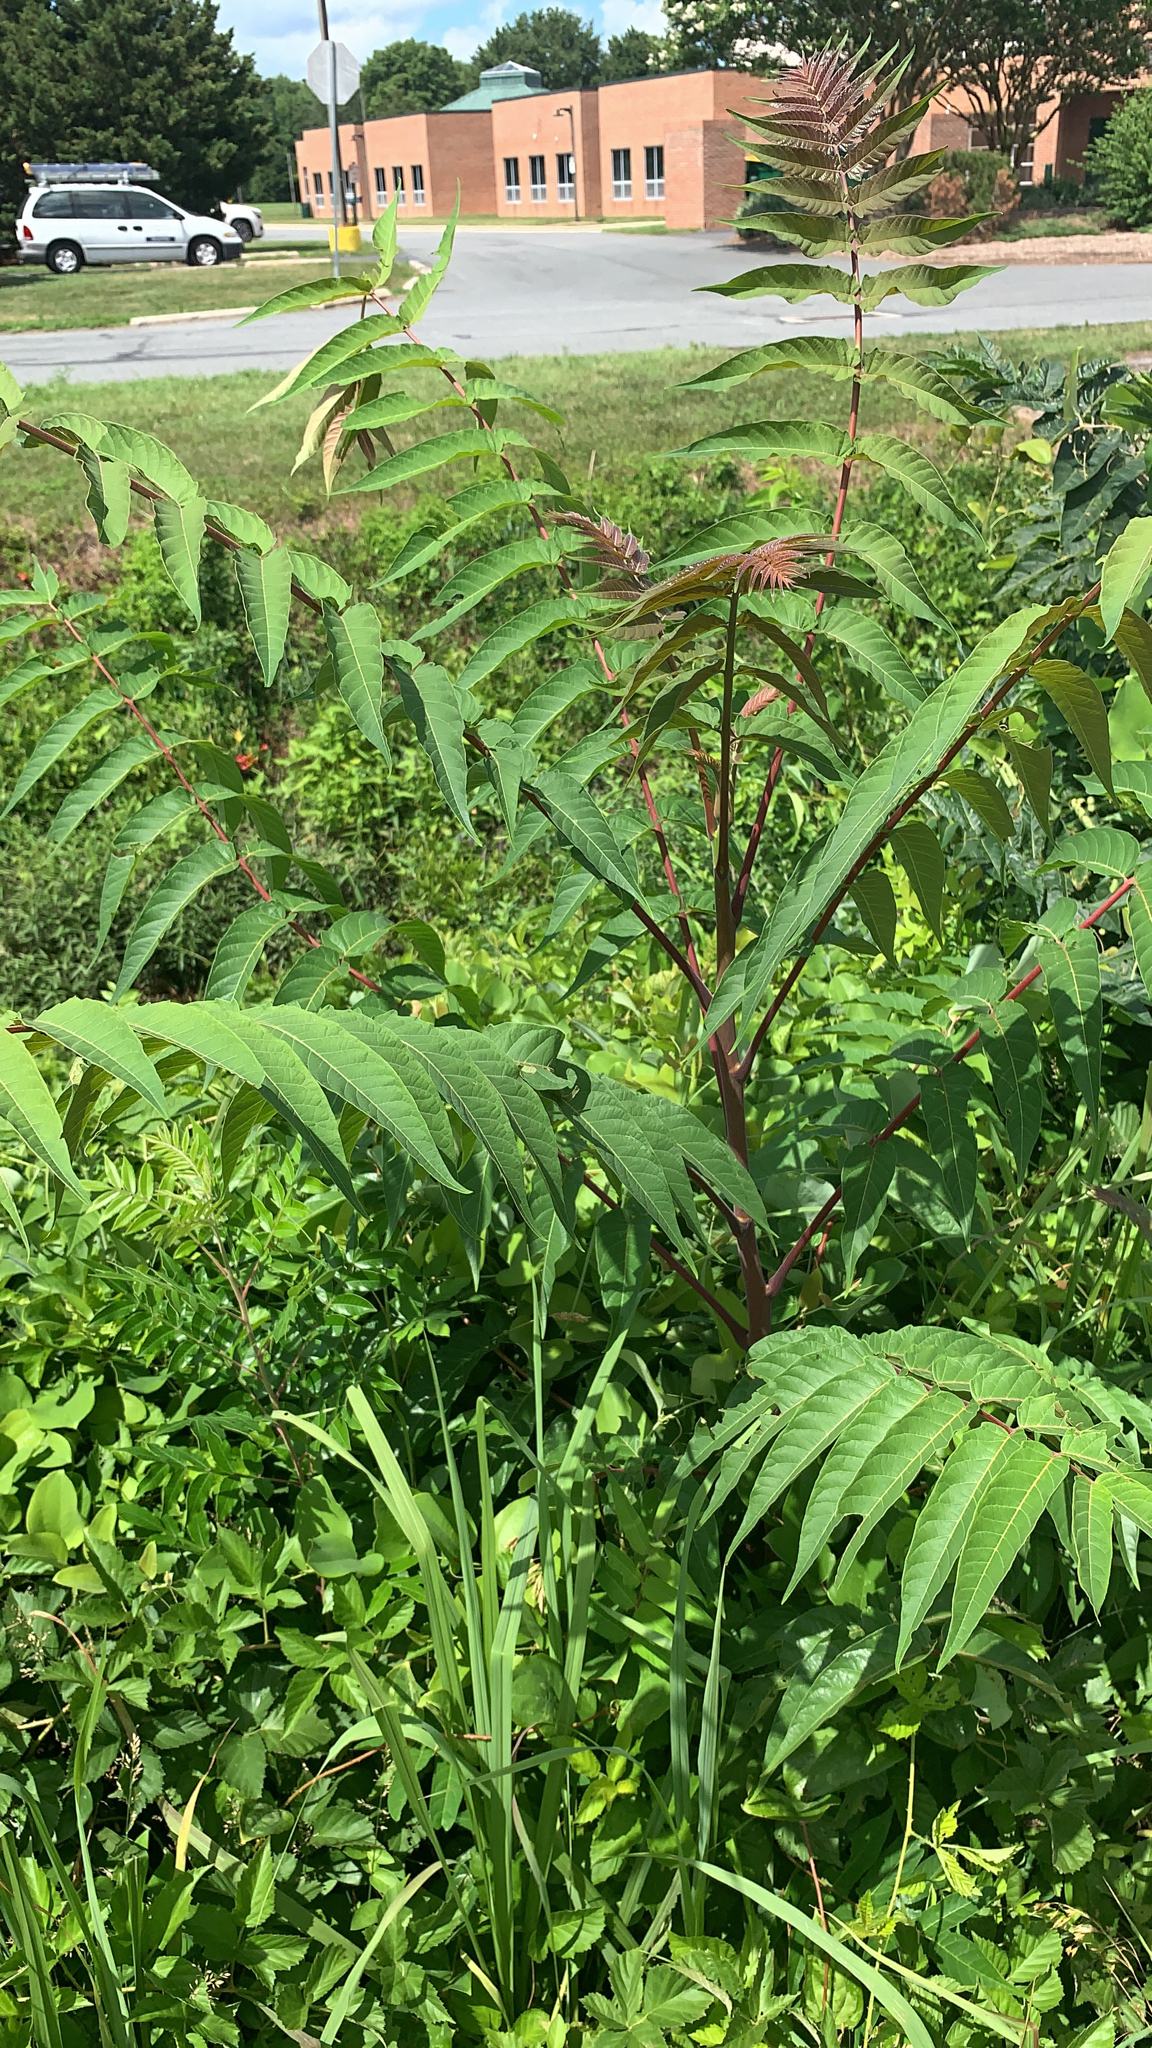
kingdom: Plantae
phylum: Tracheophyta
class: Magnoliopsida
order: Sapindales
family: Simaroubaceae
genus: Ailanthus
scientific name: Ailanthus altissima
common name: Tree-of-heaven
